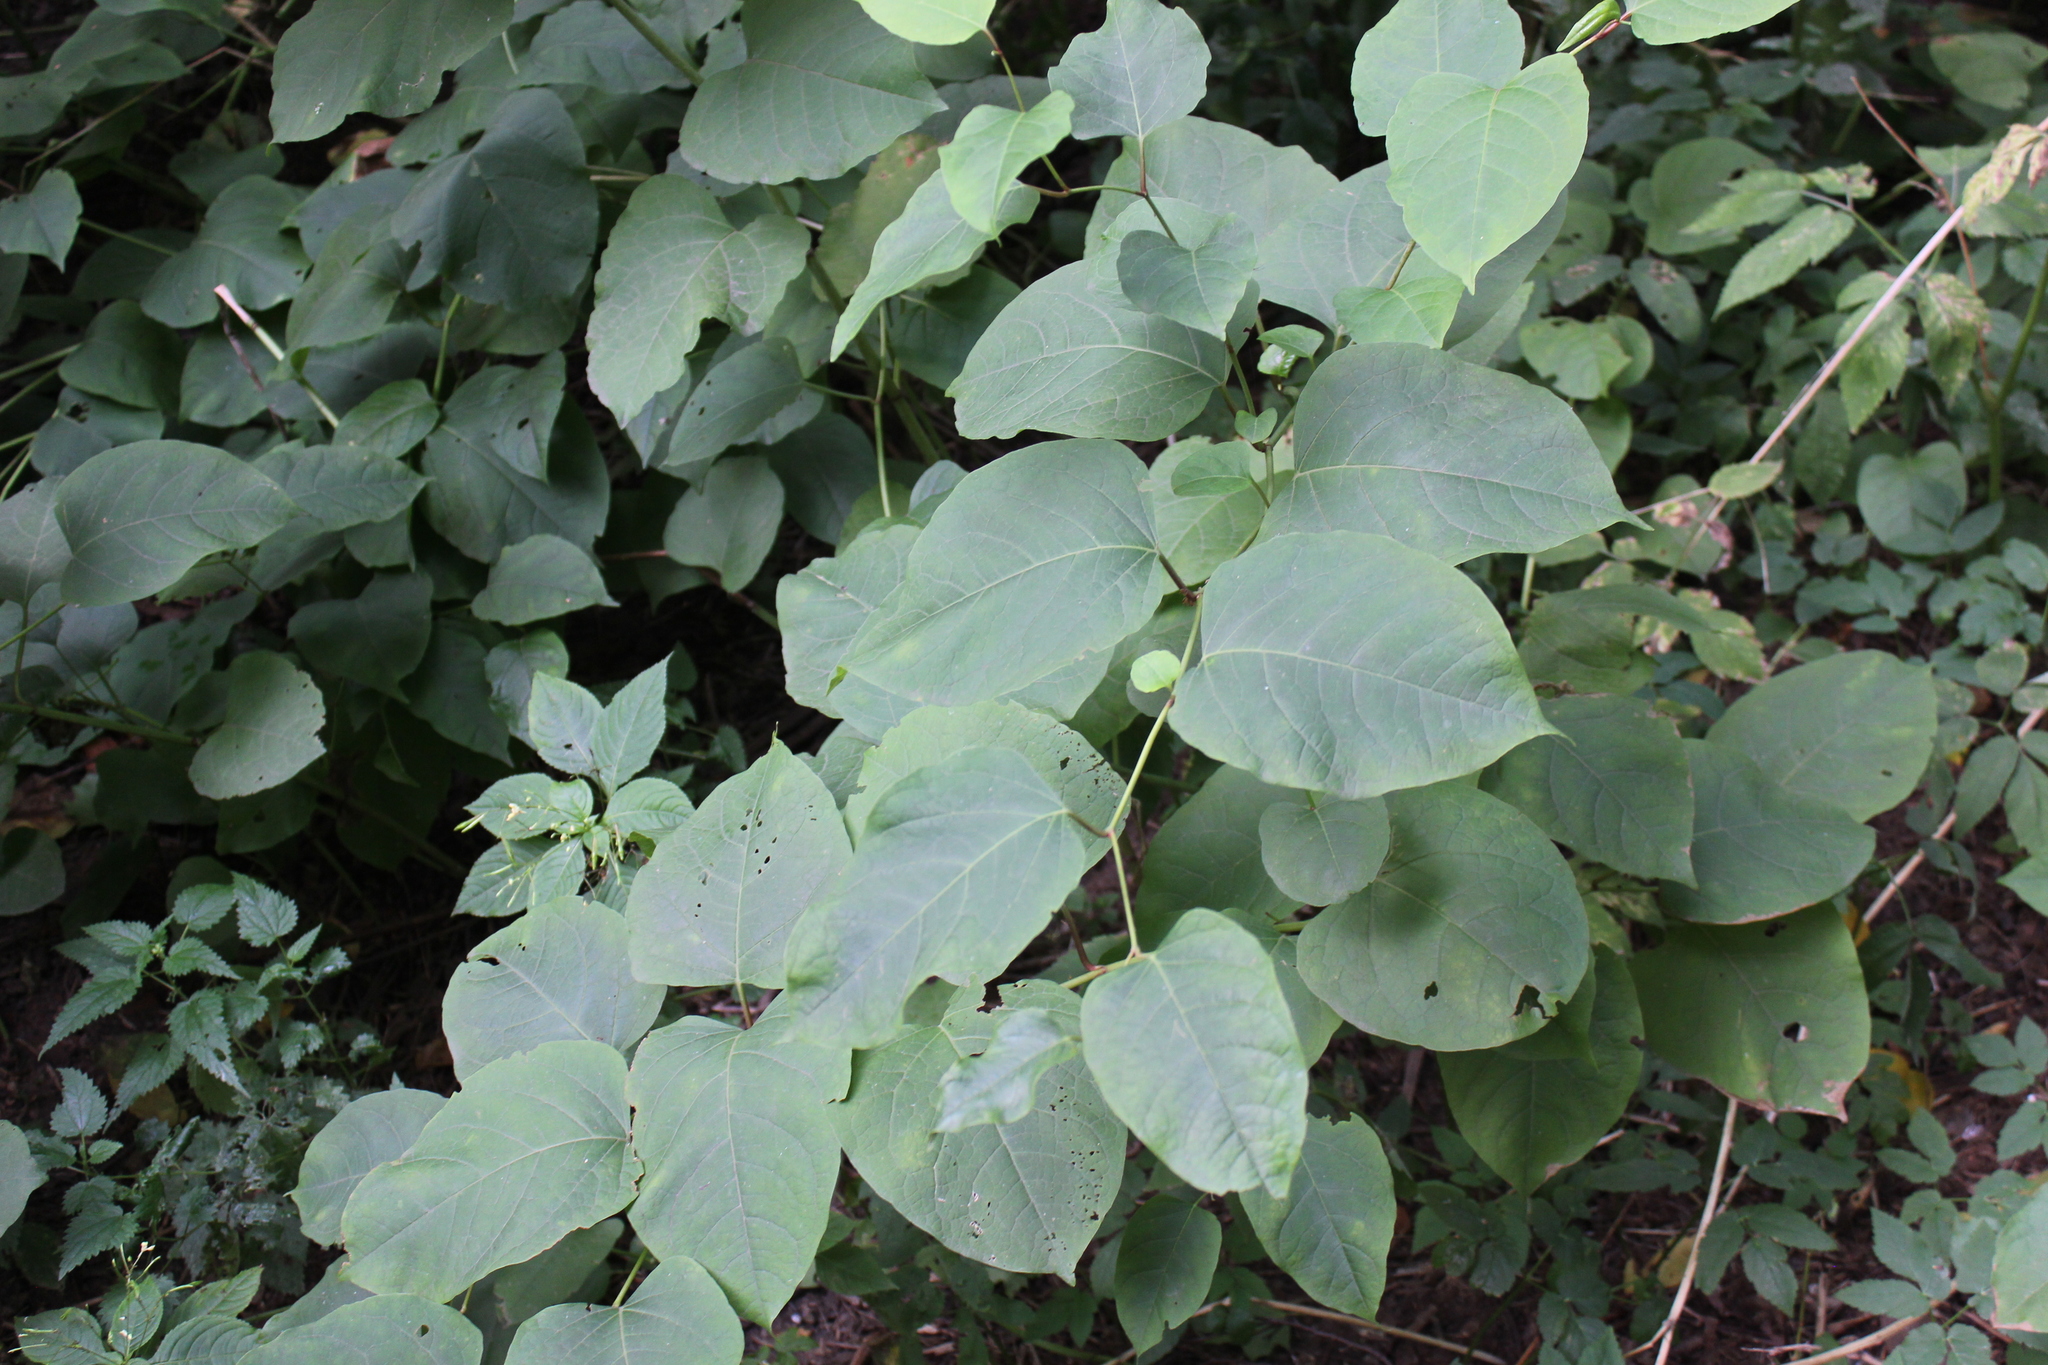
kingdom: Plantae
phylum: Tracheophyta
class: Magnoliopsida
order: Caryophyllales
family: Polygonaceae
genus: Reynoutria
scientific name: Reynoutria bohemica
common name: Bohemian knotweed
